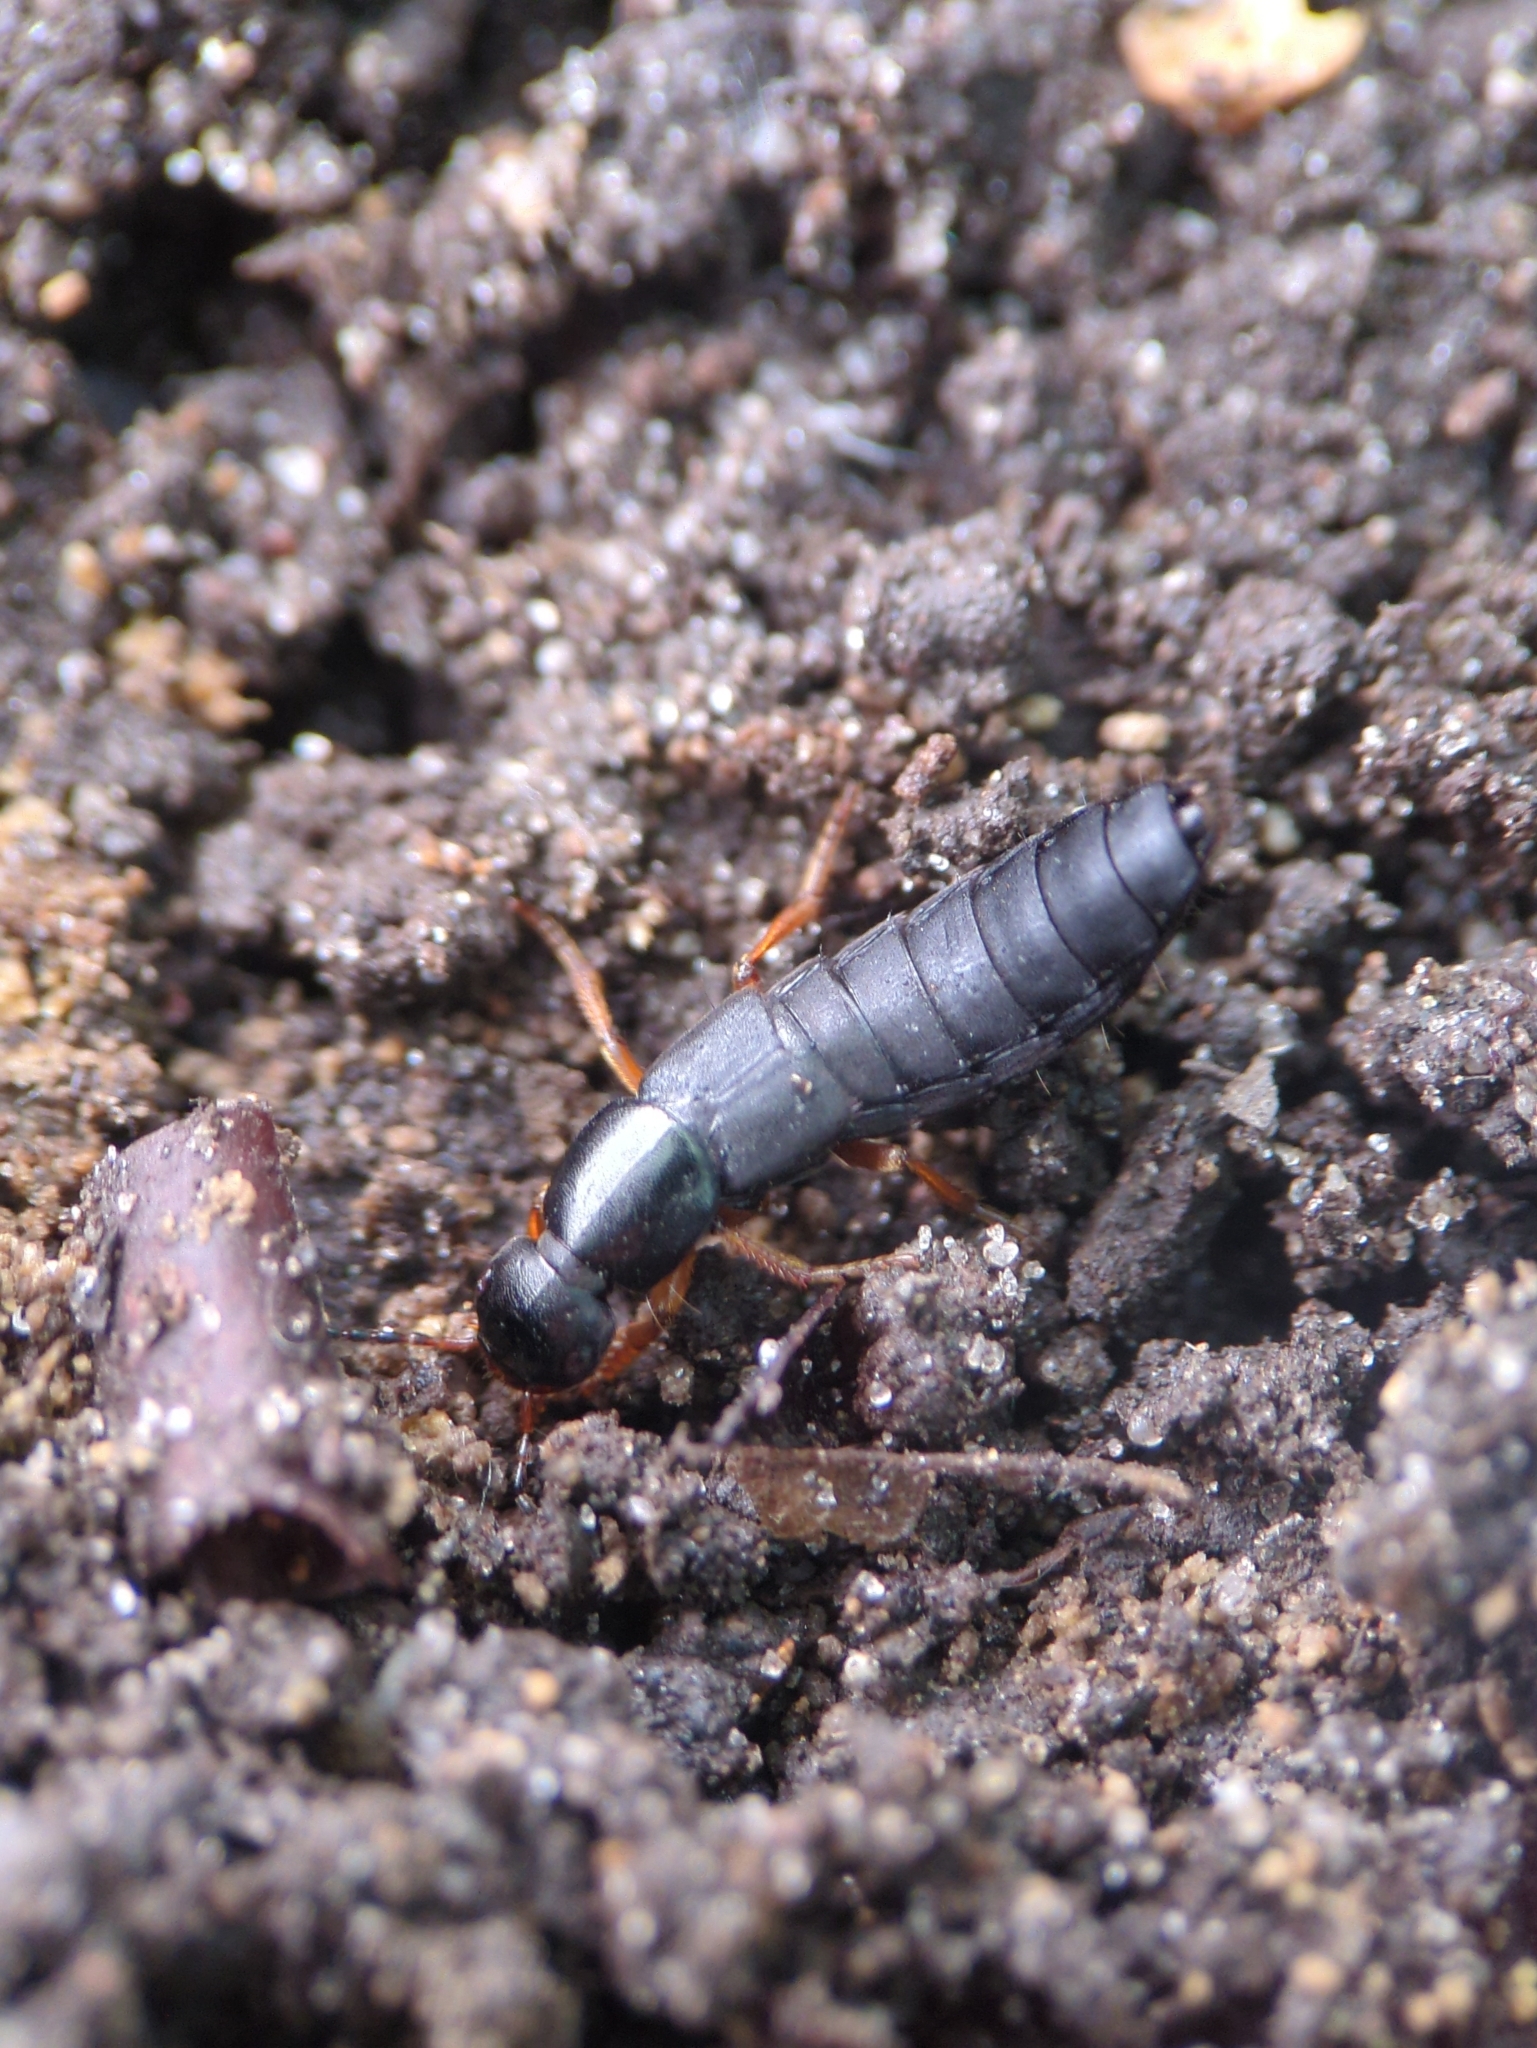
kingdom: Animalia
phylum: Arthropoda
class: Insecta
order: Coleoptera
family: Staphylinidae
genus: Ocypus
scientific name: Ocypus brunnipes
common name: Rove beetle
